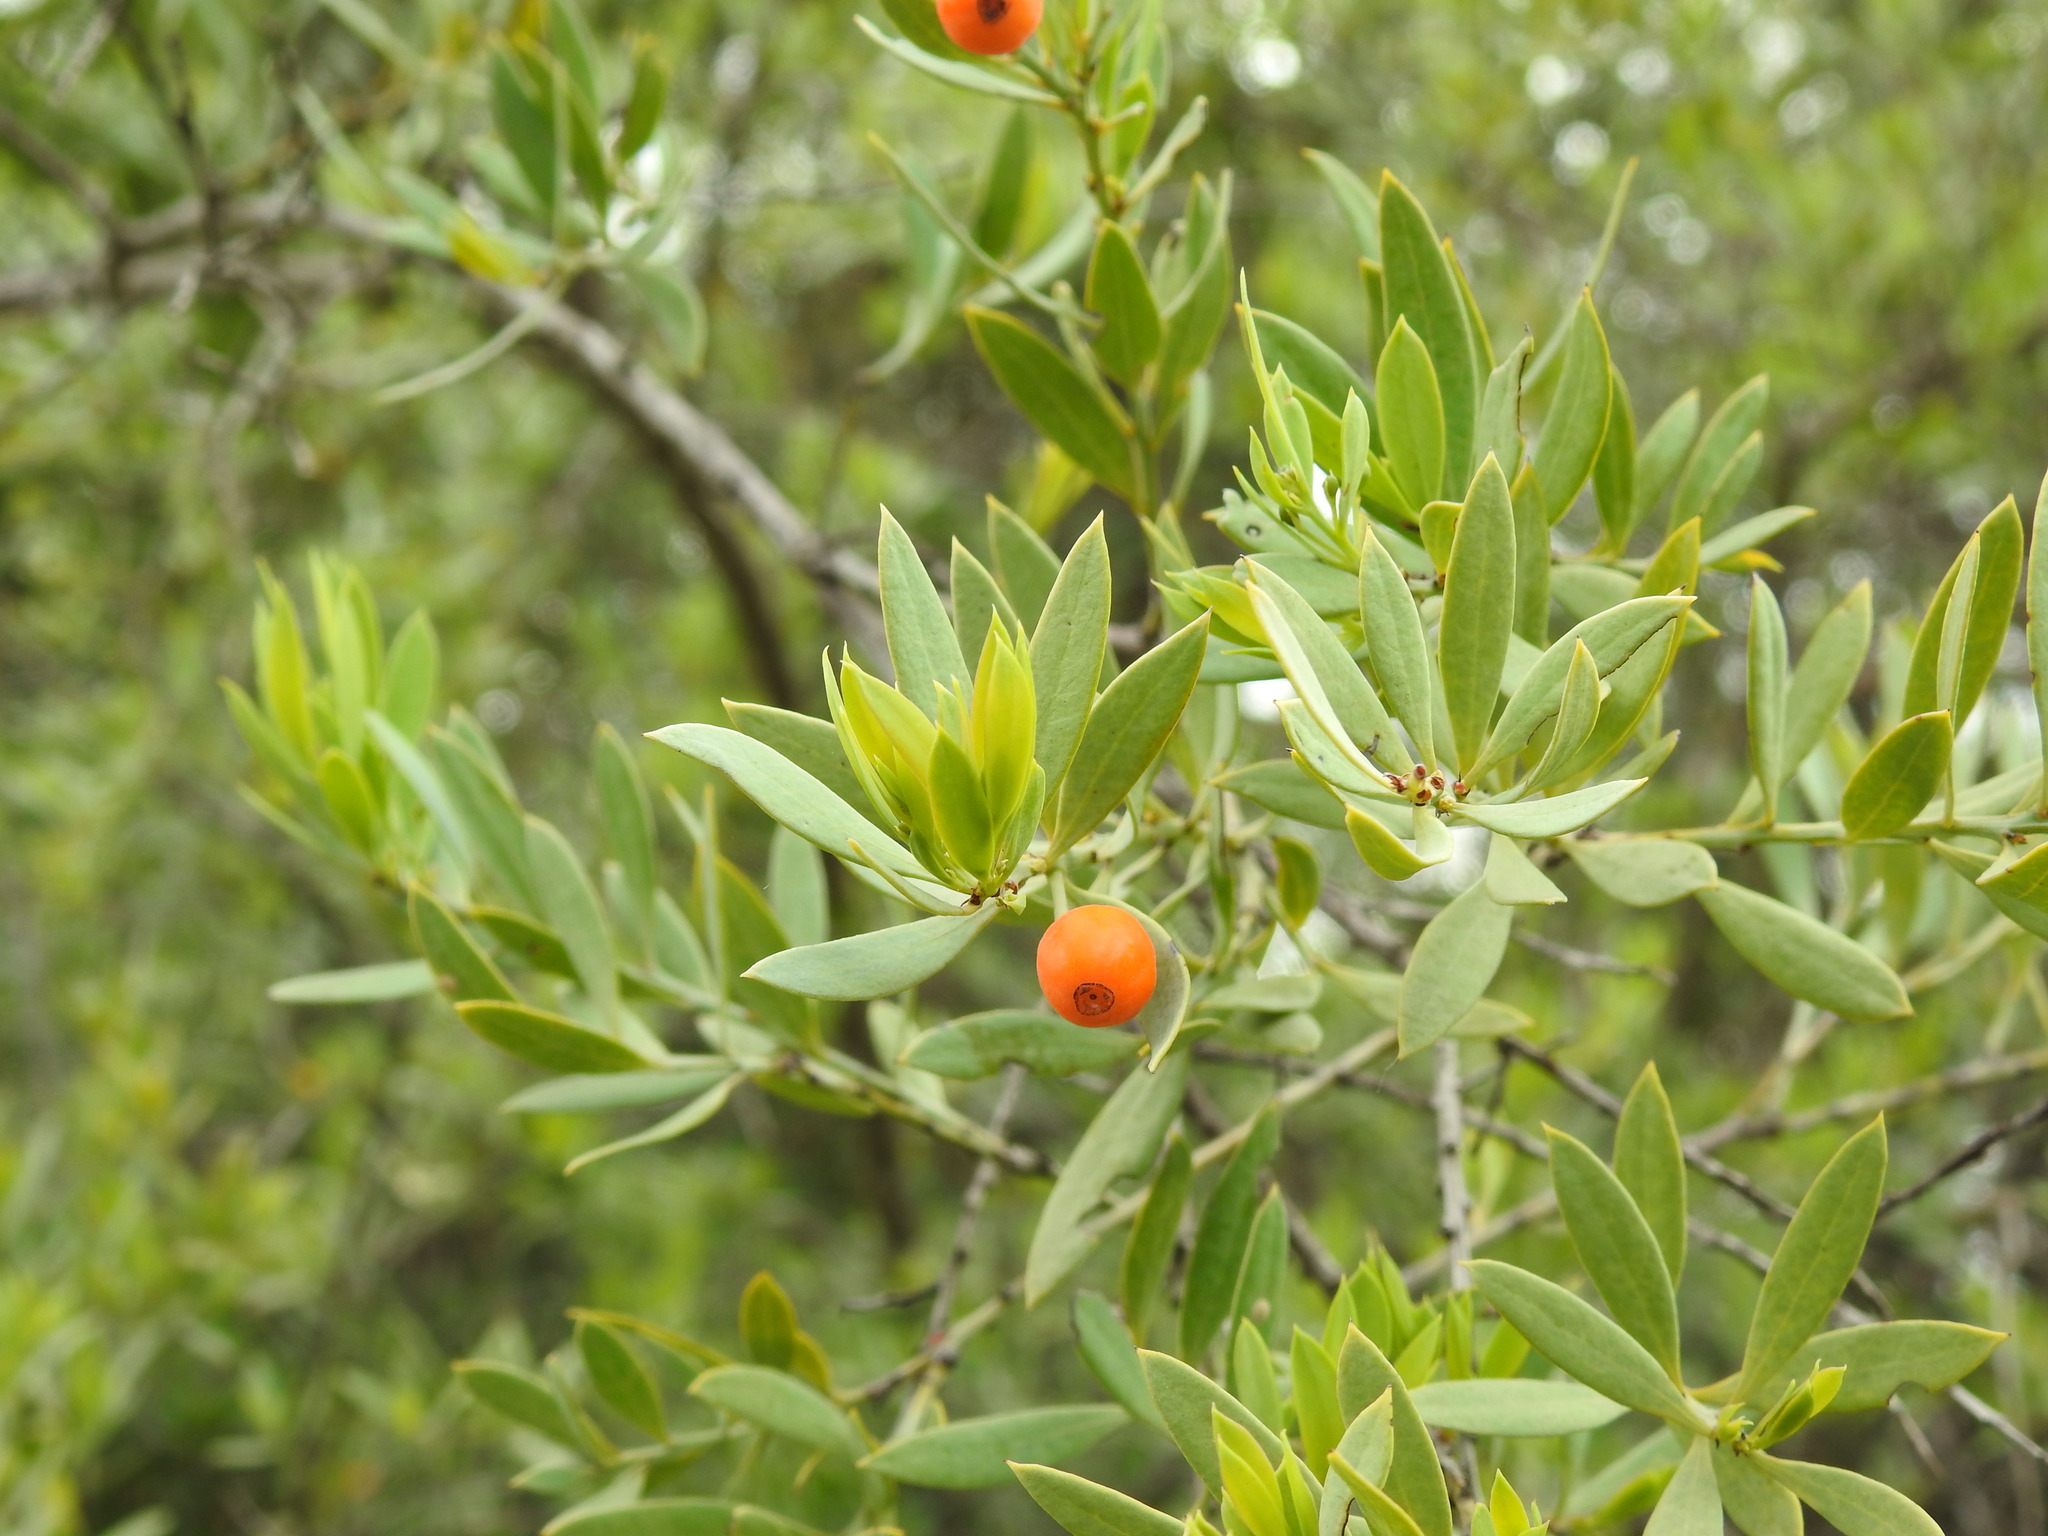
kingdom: Plantae
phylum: Tracheophyta
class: Magnoliopsida
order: Santalales
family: Santalaceae
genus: Osyris
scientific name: Osyris lanceolata
